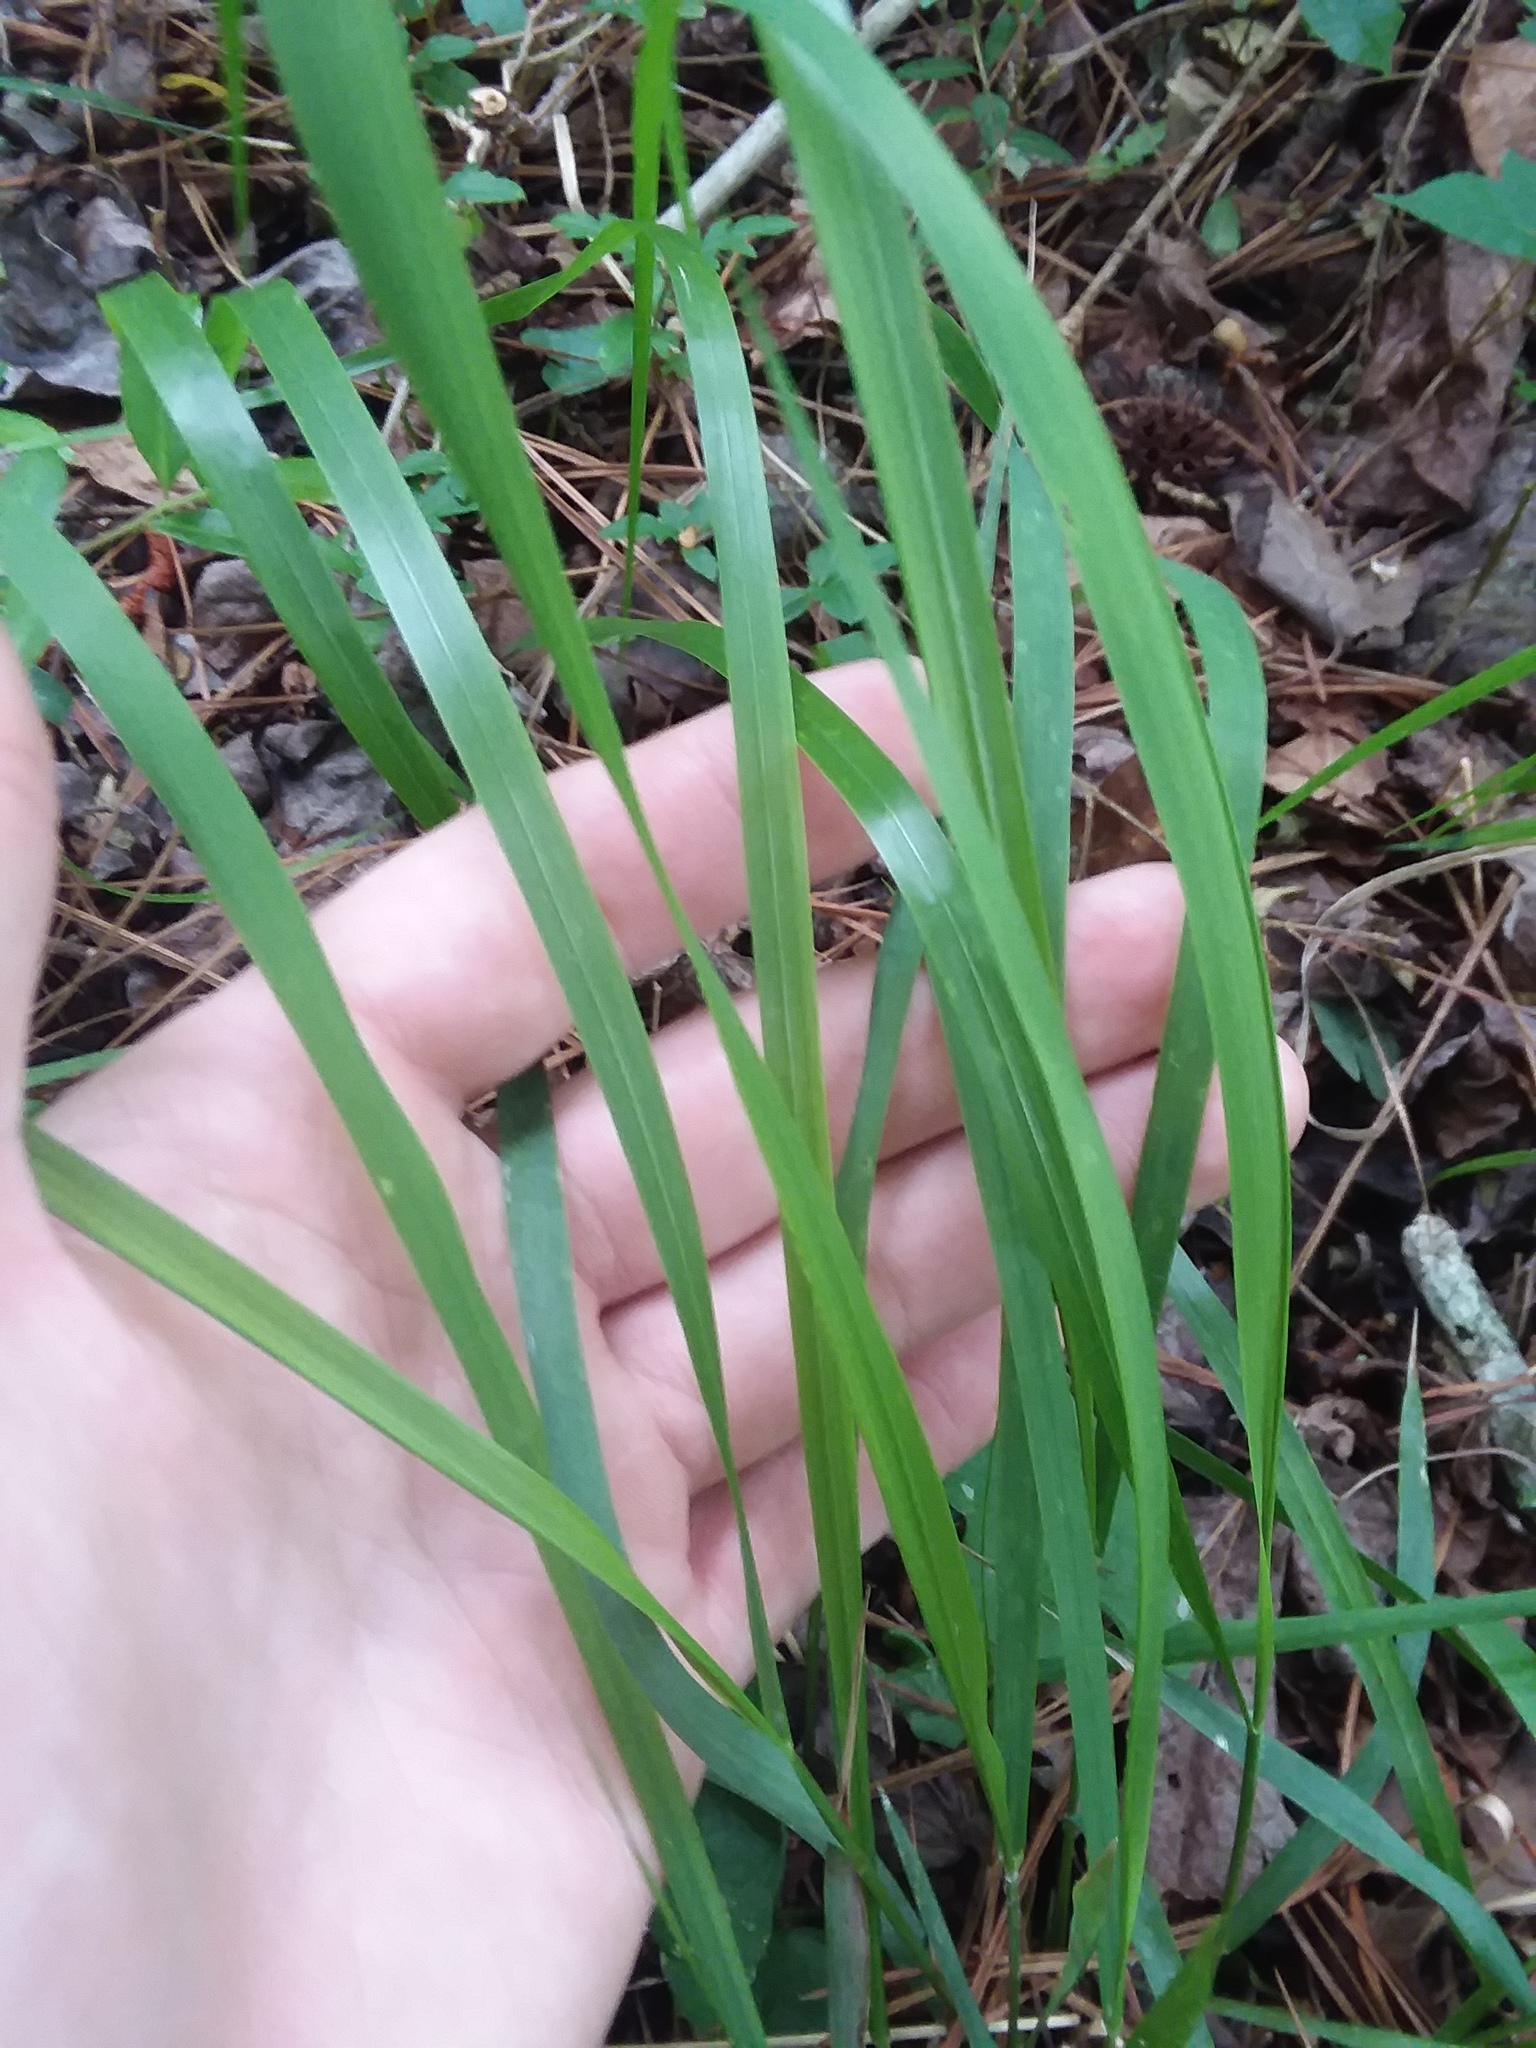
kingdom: Plantae
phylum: Tracheophyta
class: Liliopsida
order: Poales
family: Poaceae
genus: Chasmanthium
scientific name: Chasmanthium laxum
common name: Slender chasmanthium
